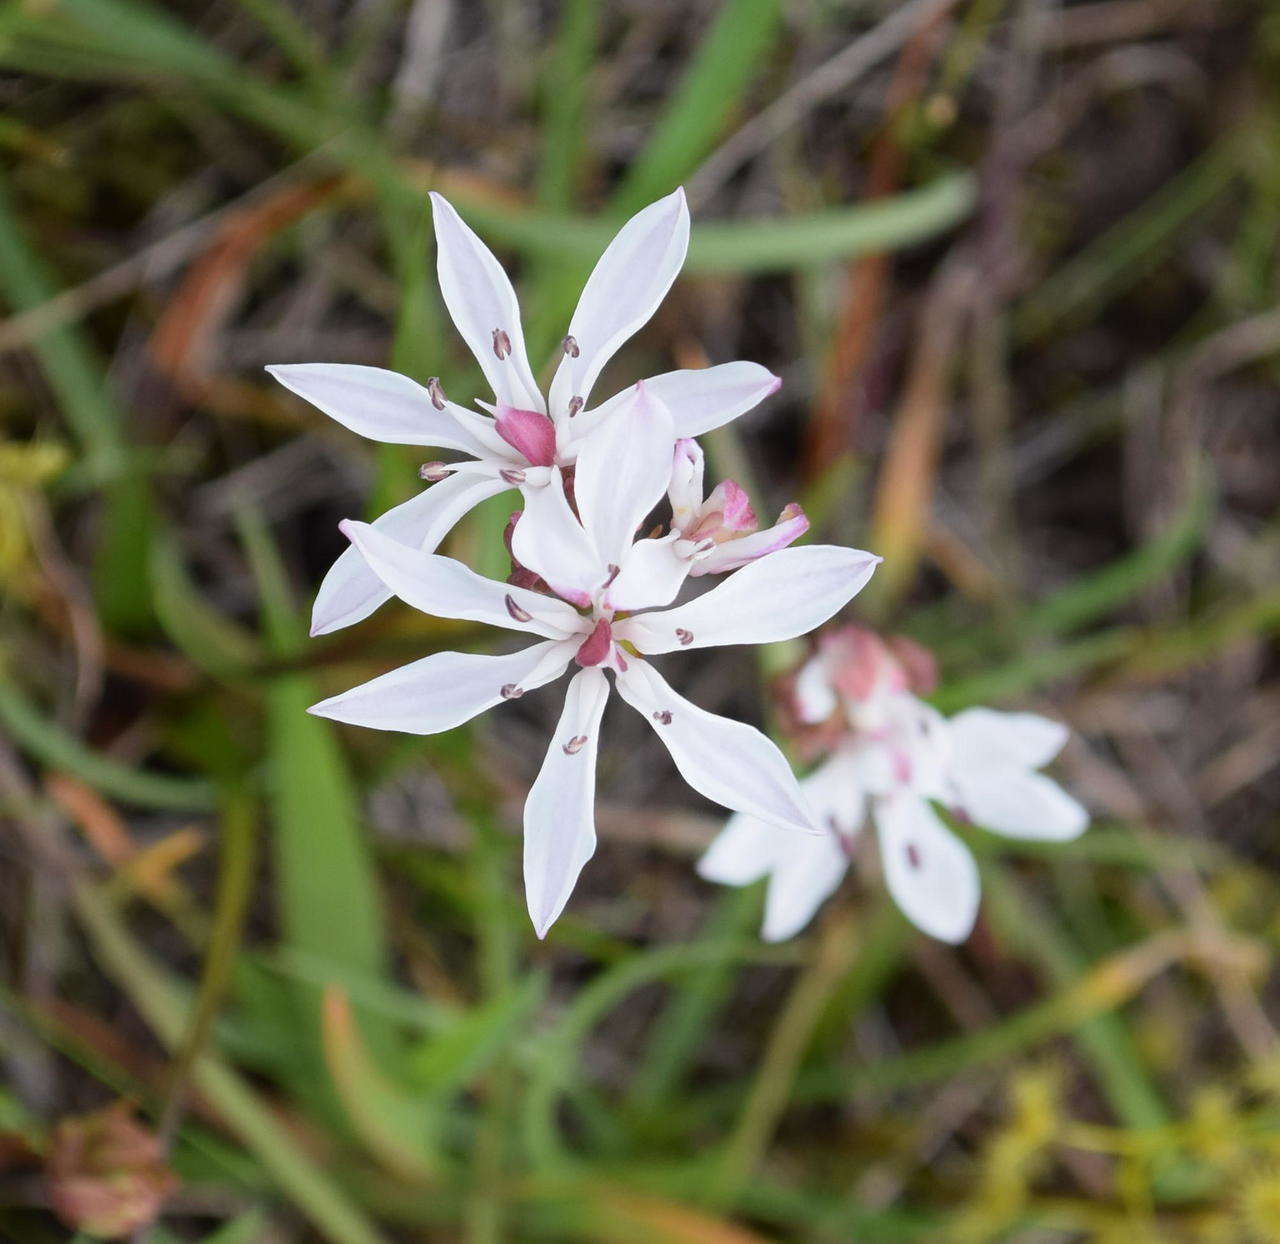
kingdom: Plantae
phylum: Tracheophyta
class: Liliopsida
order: Liliales
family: Colchicaceae
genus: Burchardia
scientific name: Burchardia umbellata
